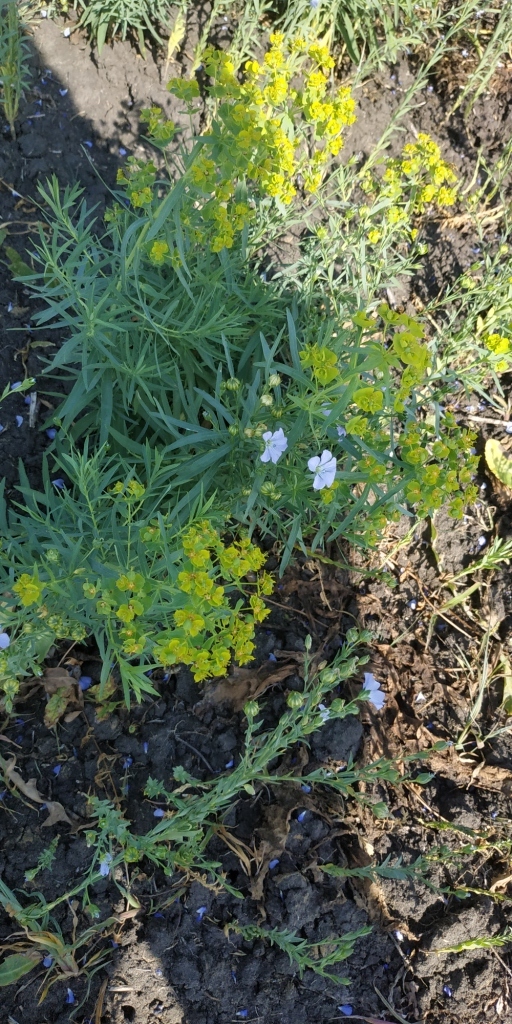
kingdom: Plantae
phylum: Tracheophyta
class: Magnoliopsida
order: Malpighiales
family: Euphorbiaceae
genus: Euphorbia
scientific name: Euphorbia virgata
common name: Leafy spurge
